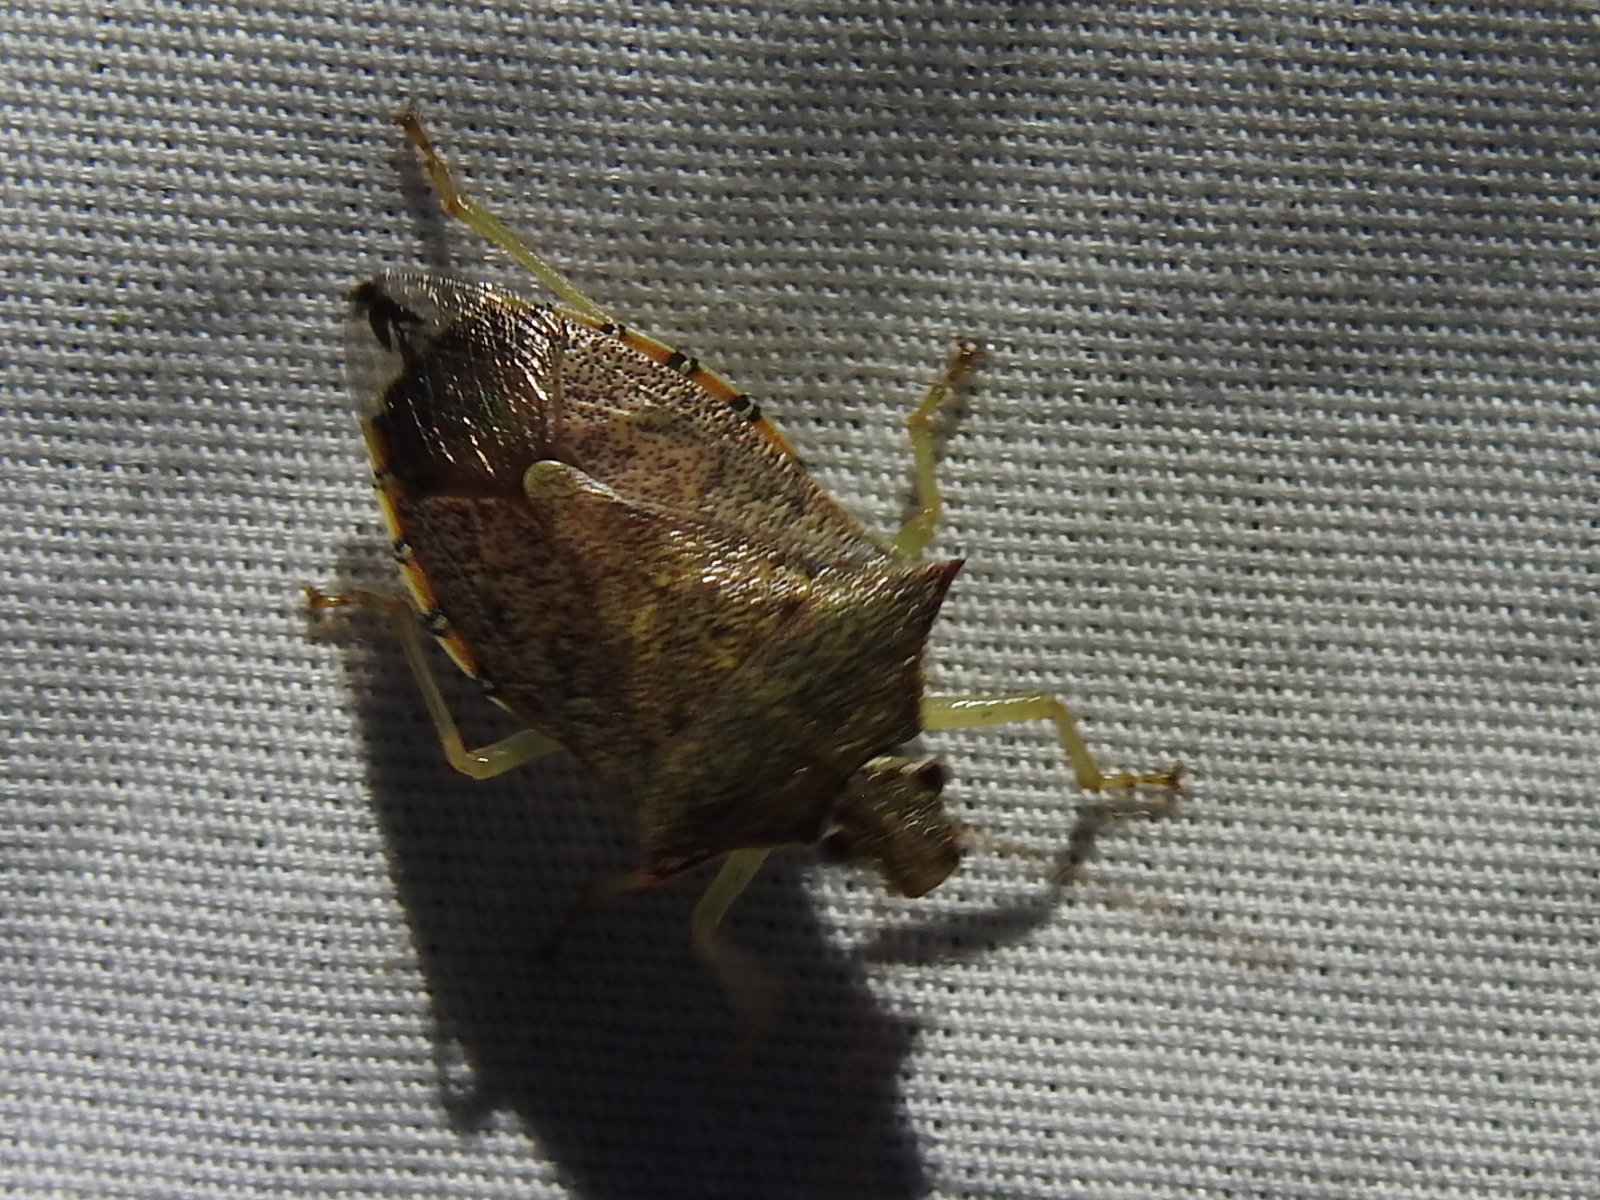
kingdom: Animalia
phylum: Arthropoda
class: Insecta
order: Hemiptera
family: Pentatomidae
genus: Podisus
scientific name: Podisus maculiventris
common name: Spined soldier bug
